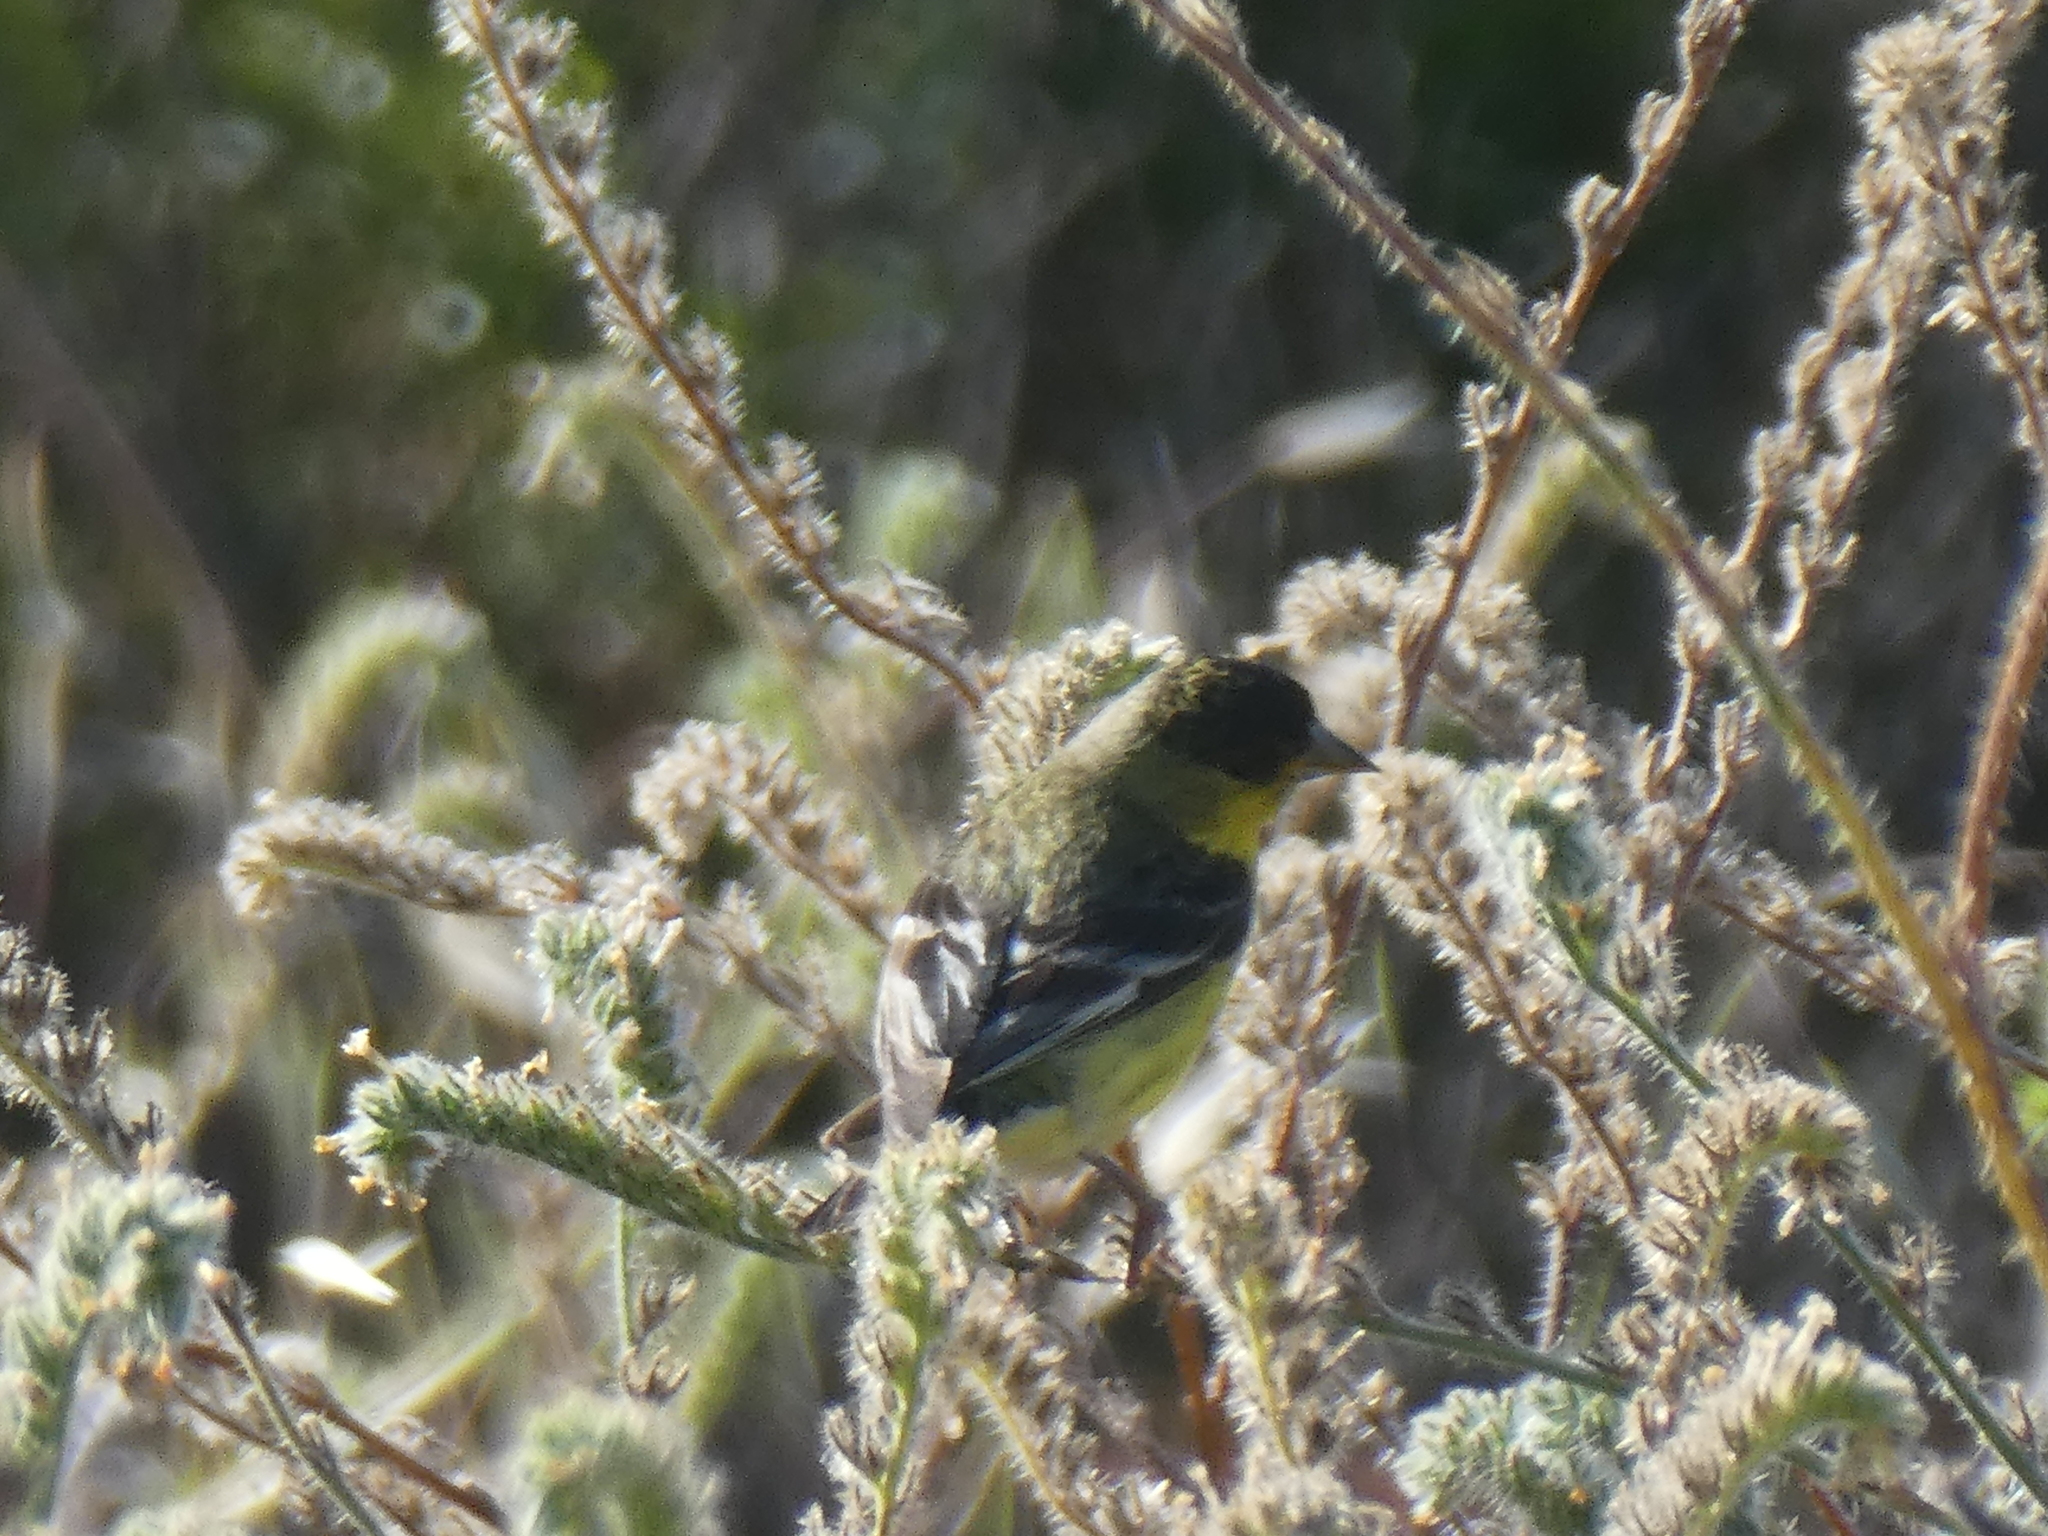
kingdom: Animalia
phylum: Chordata
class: Aves
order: Passeriformes
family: Fringillidae
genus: Spinus
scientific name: Spinus psaltria
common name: Lesser goldfinch
